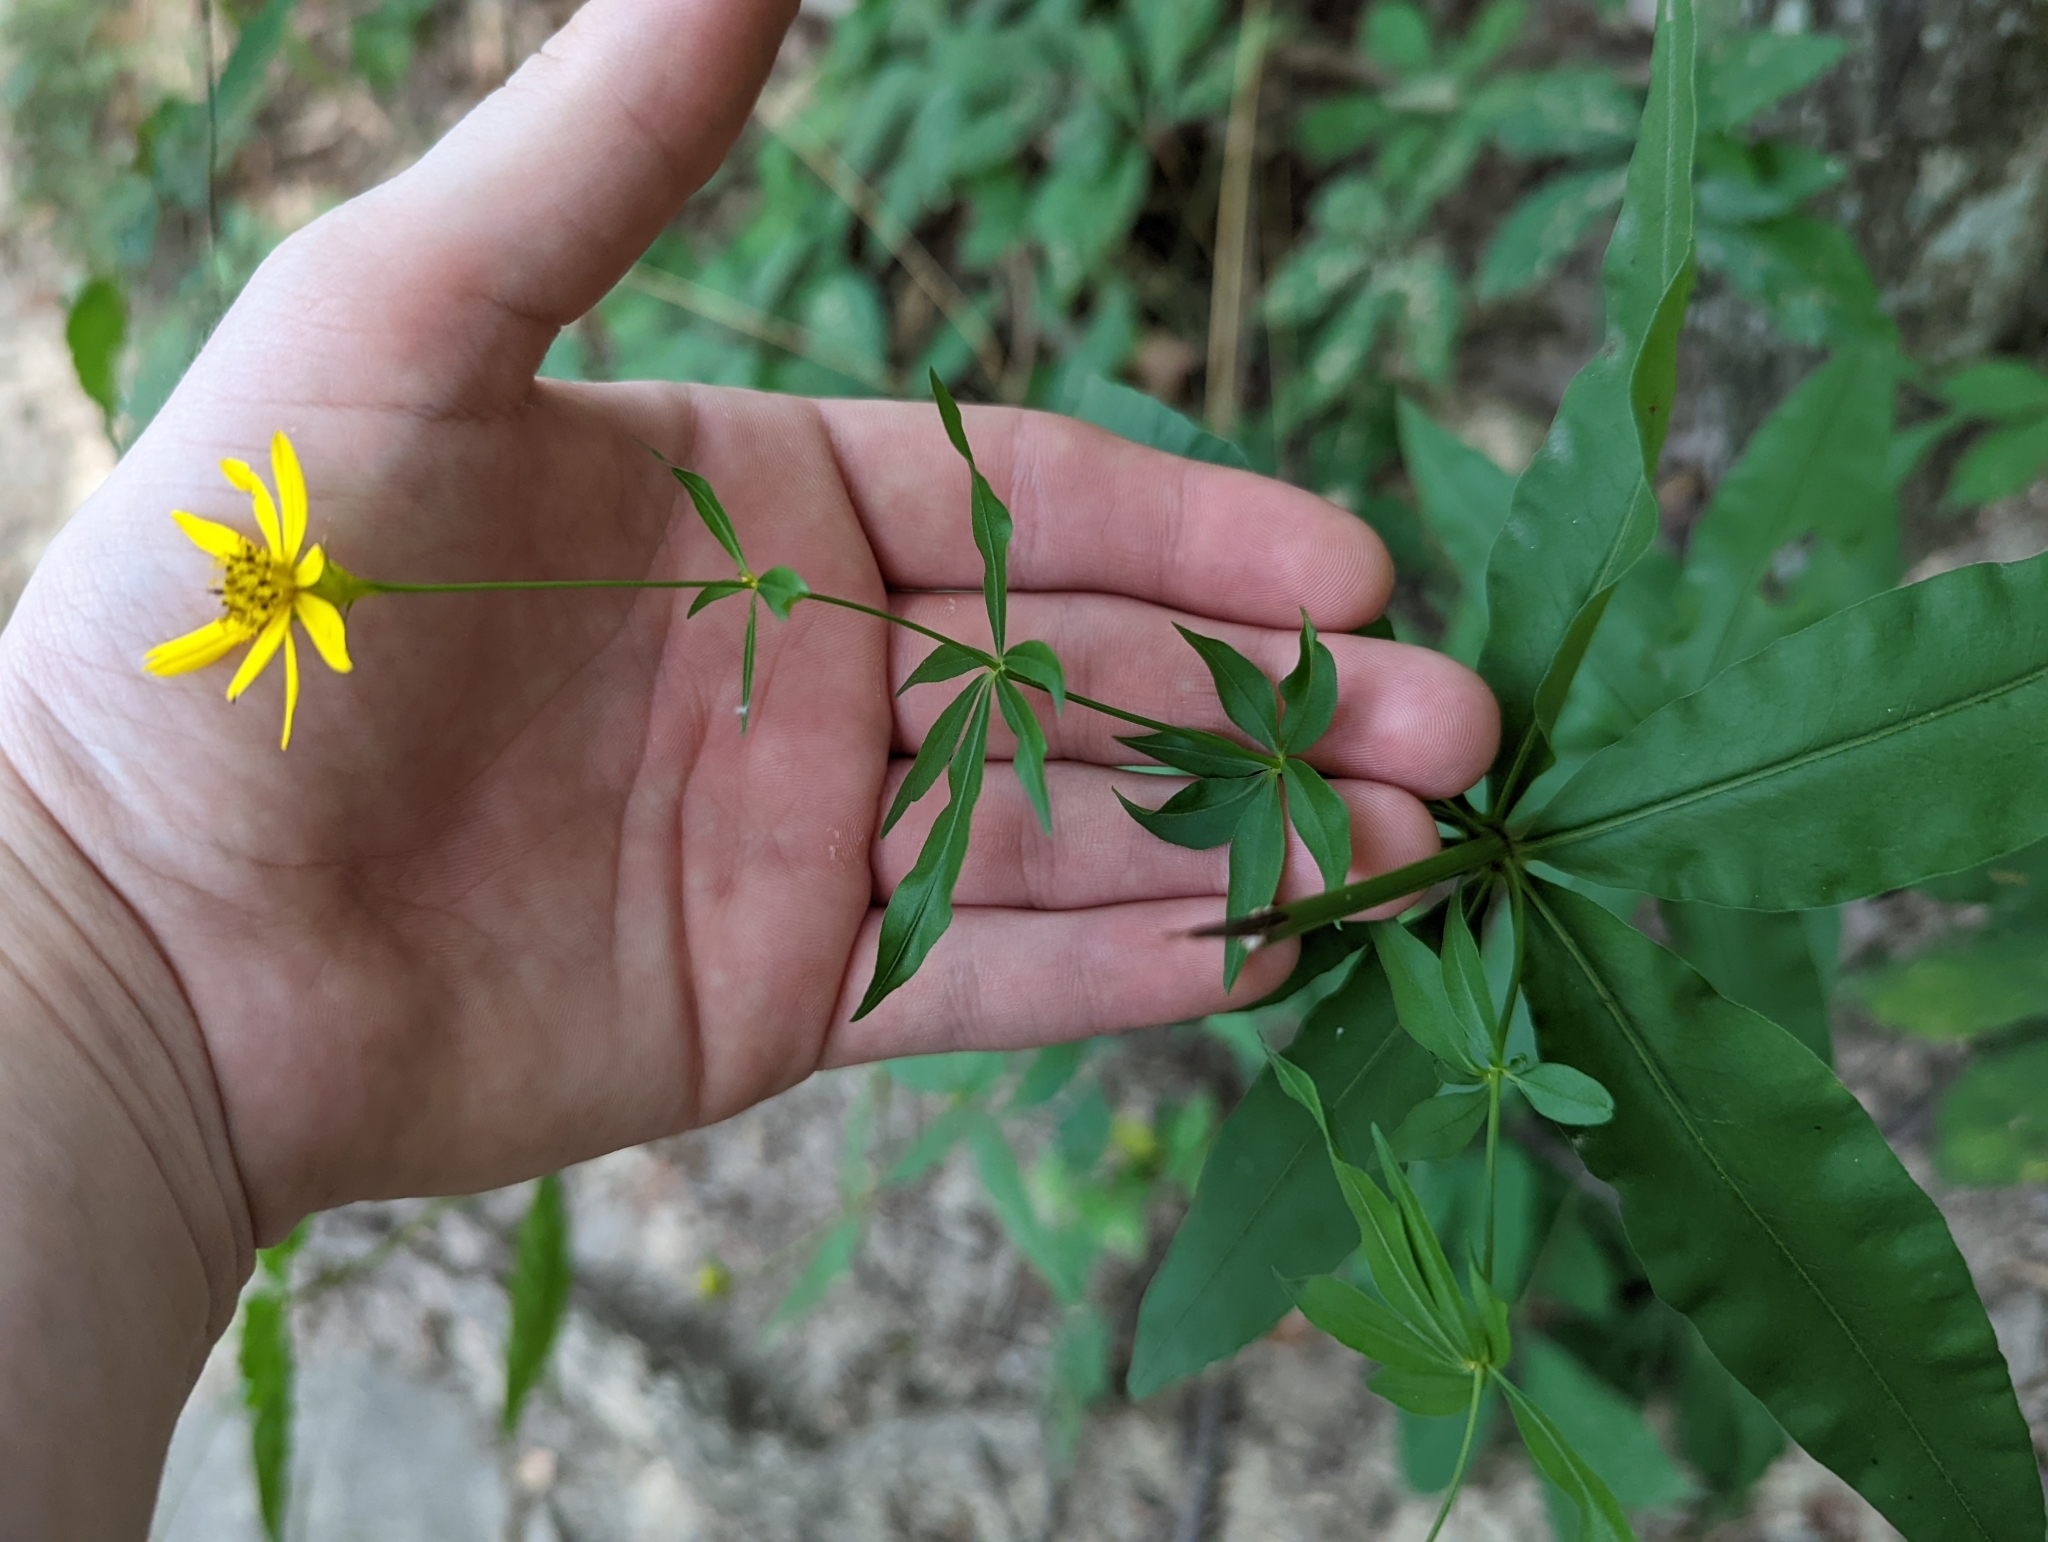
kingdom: Plantae
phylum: Tracheophyta
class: Magnoliopsida
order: Asterales
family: Asteraceae
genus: Coreopsis
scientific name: Coreopsis major
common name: Forest tickseed
